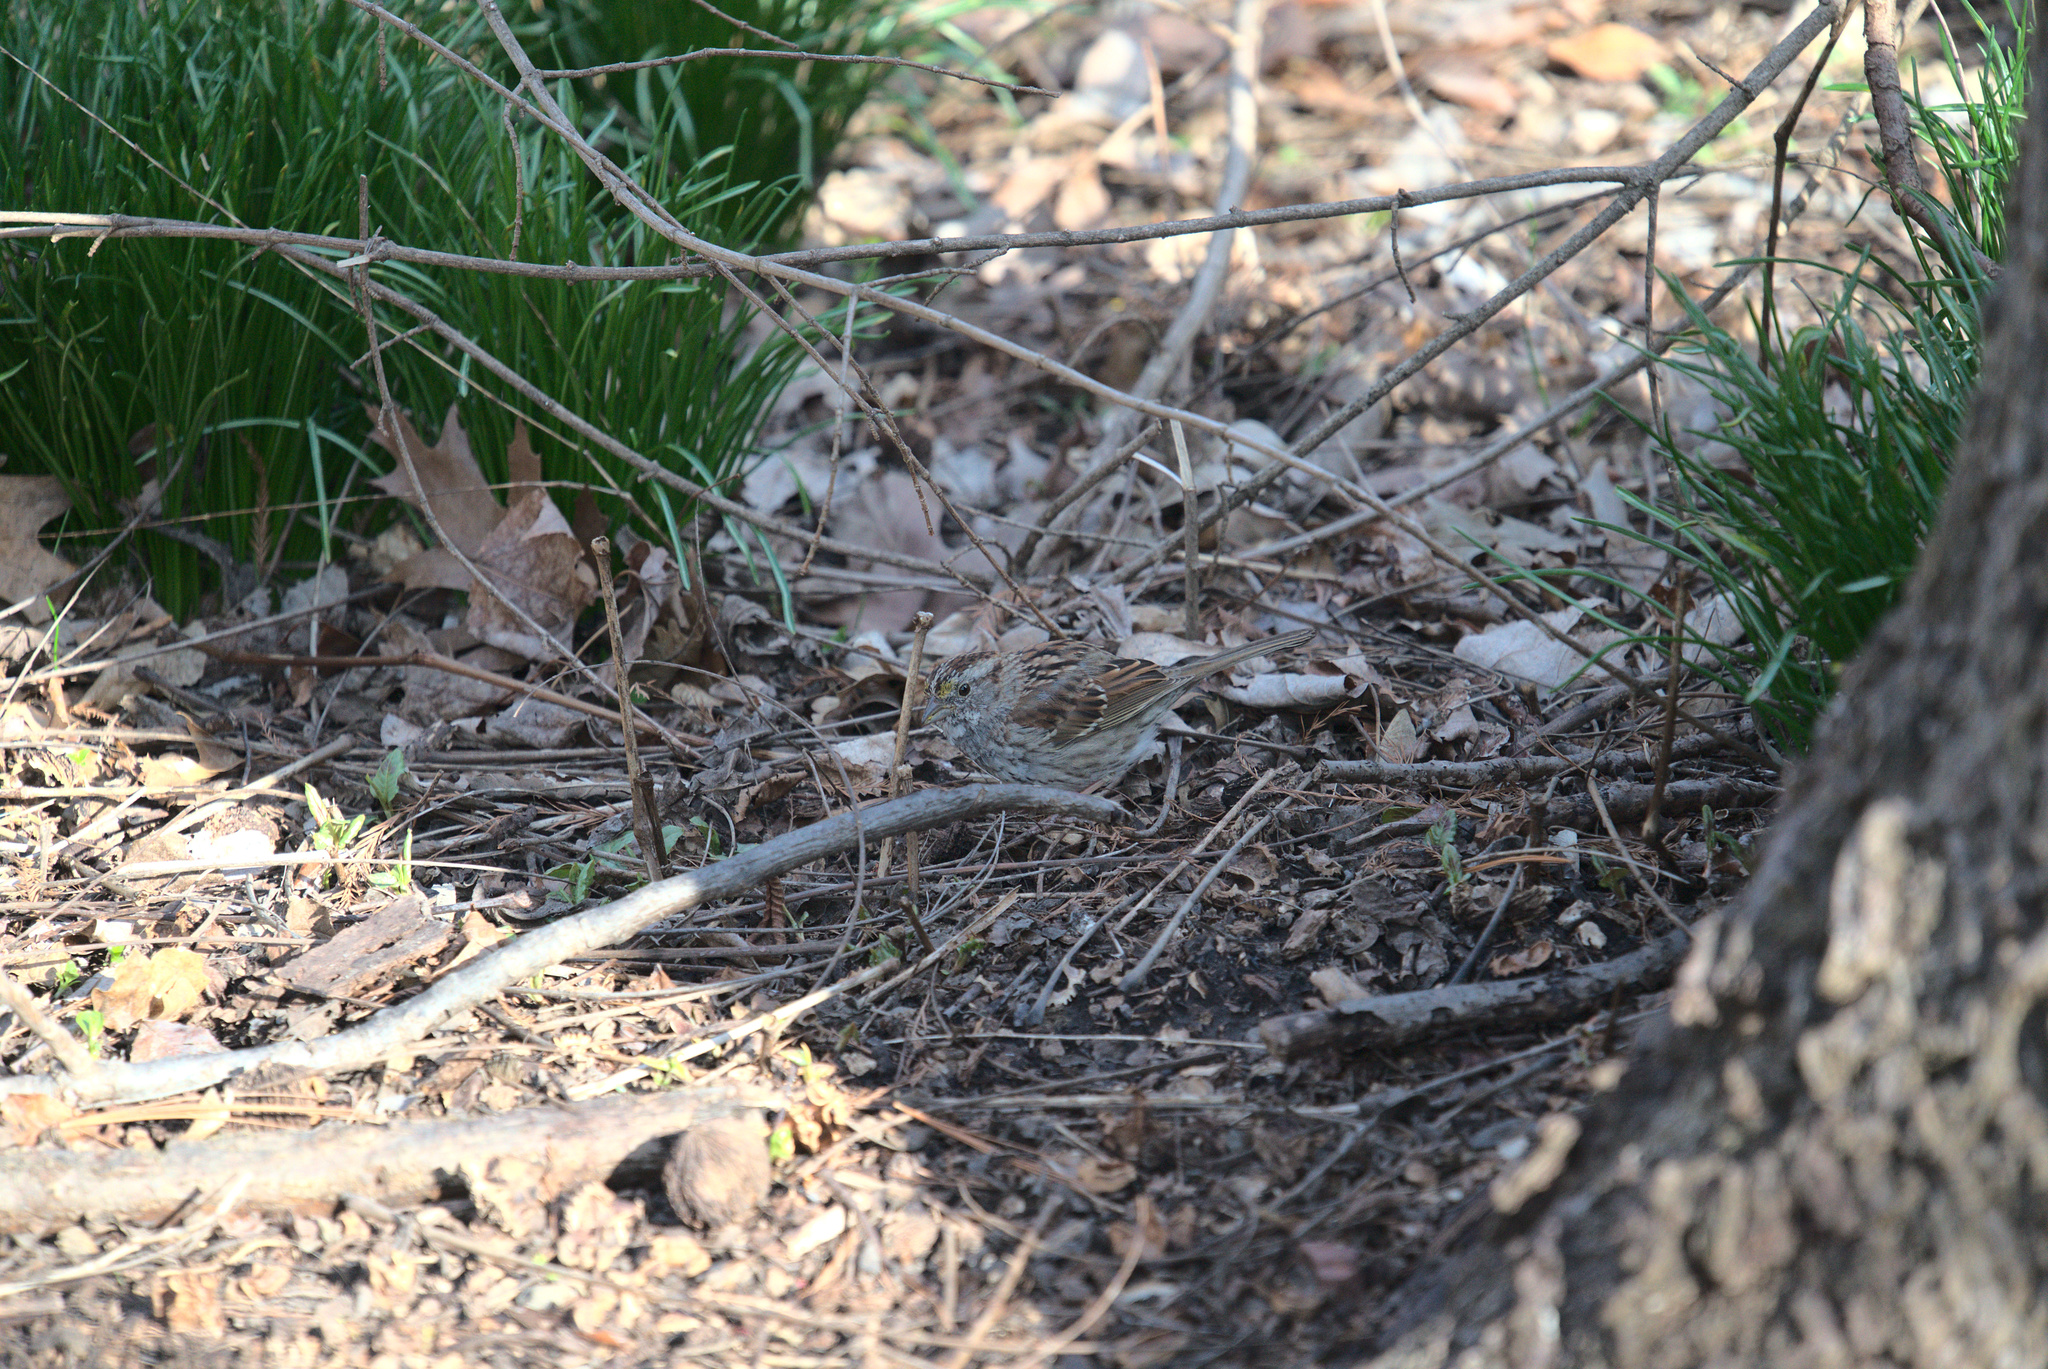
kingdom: Animalia
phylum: Chordata
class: Aves
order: Passeriformes
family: Passerellidae
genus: Zonotrichia
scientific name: Zonotrichia albicollis
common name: White-throated sparrow
